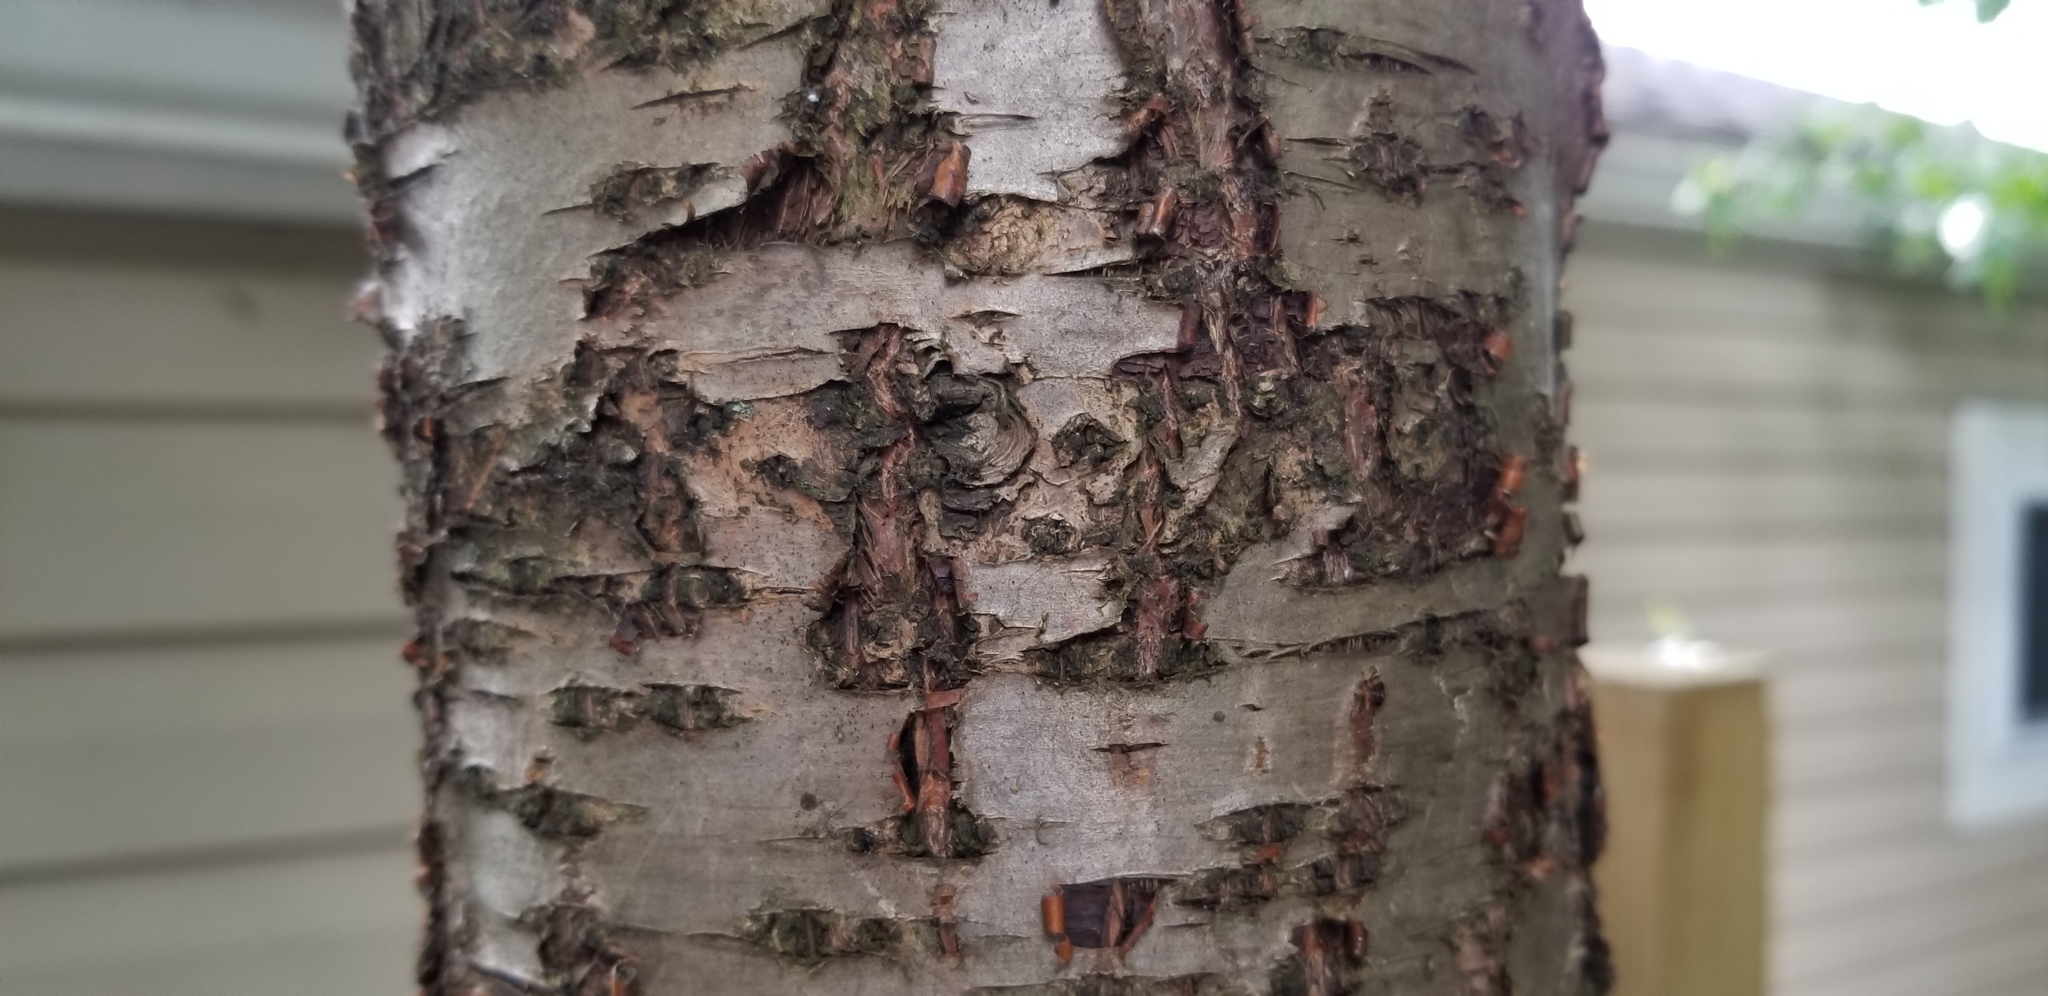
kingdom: Plantae
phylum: Tracheophyta
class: Magnoliopsida
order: Rosales
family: Rhamnaceae
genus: Rhamnus
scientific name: Rhamnus cathartica
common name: Common buckthorn
